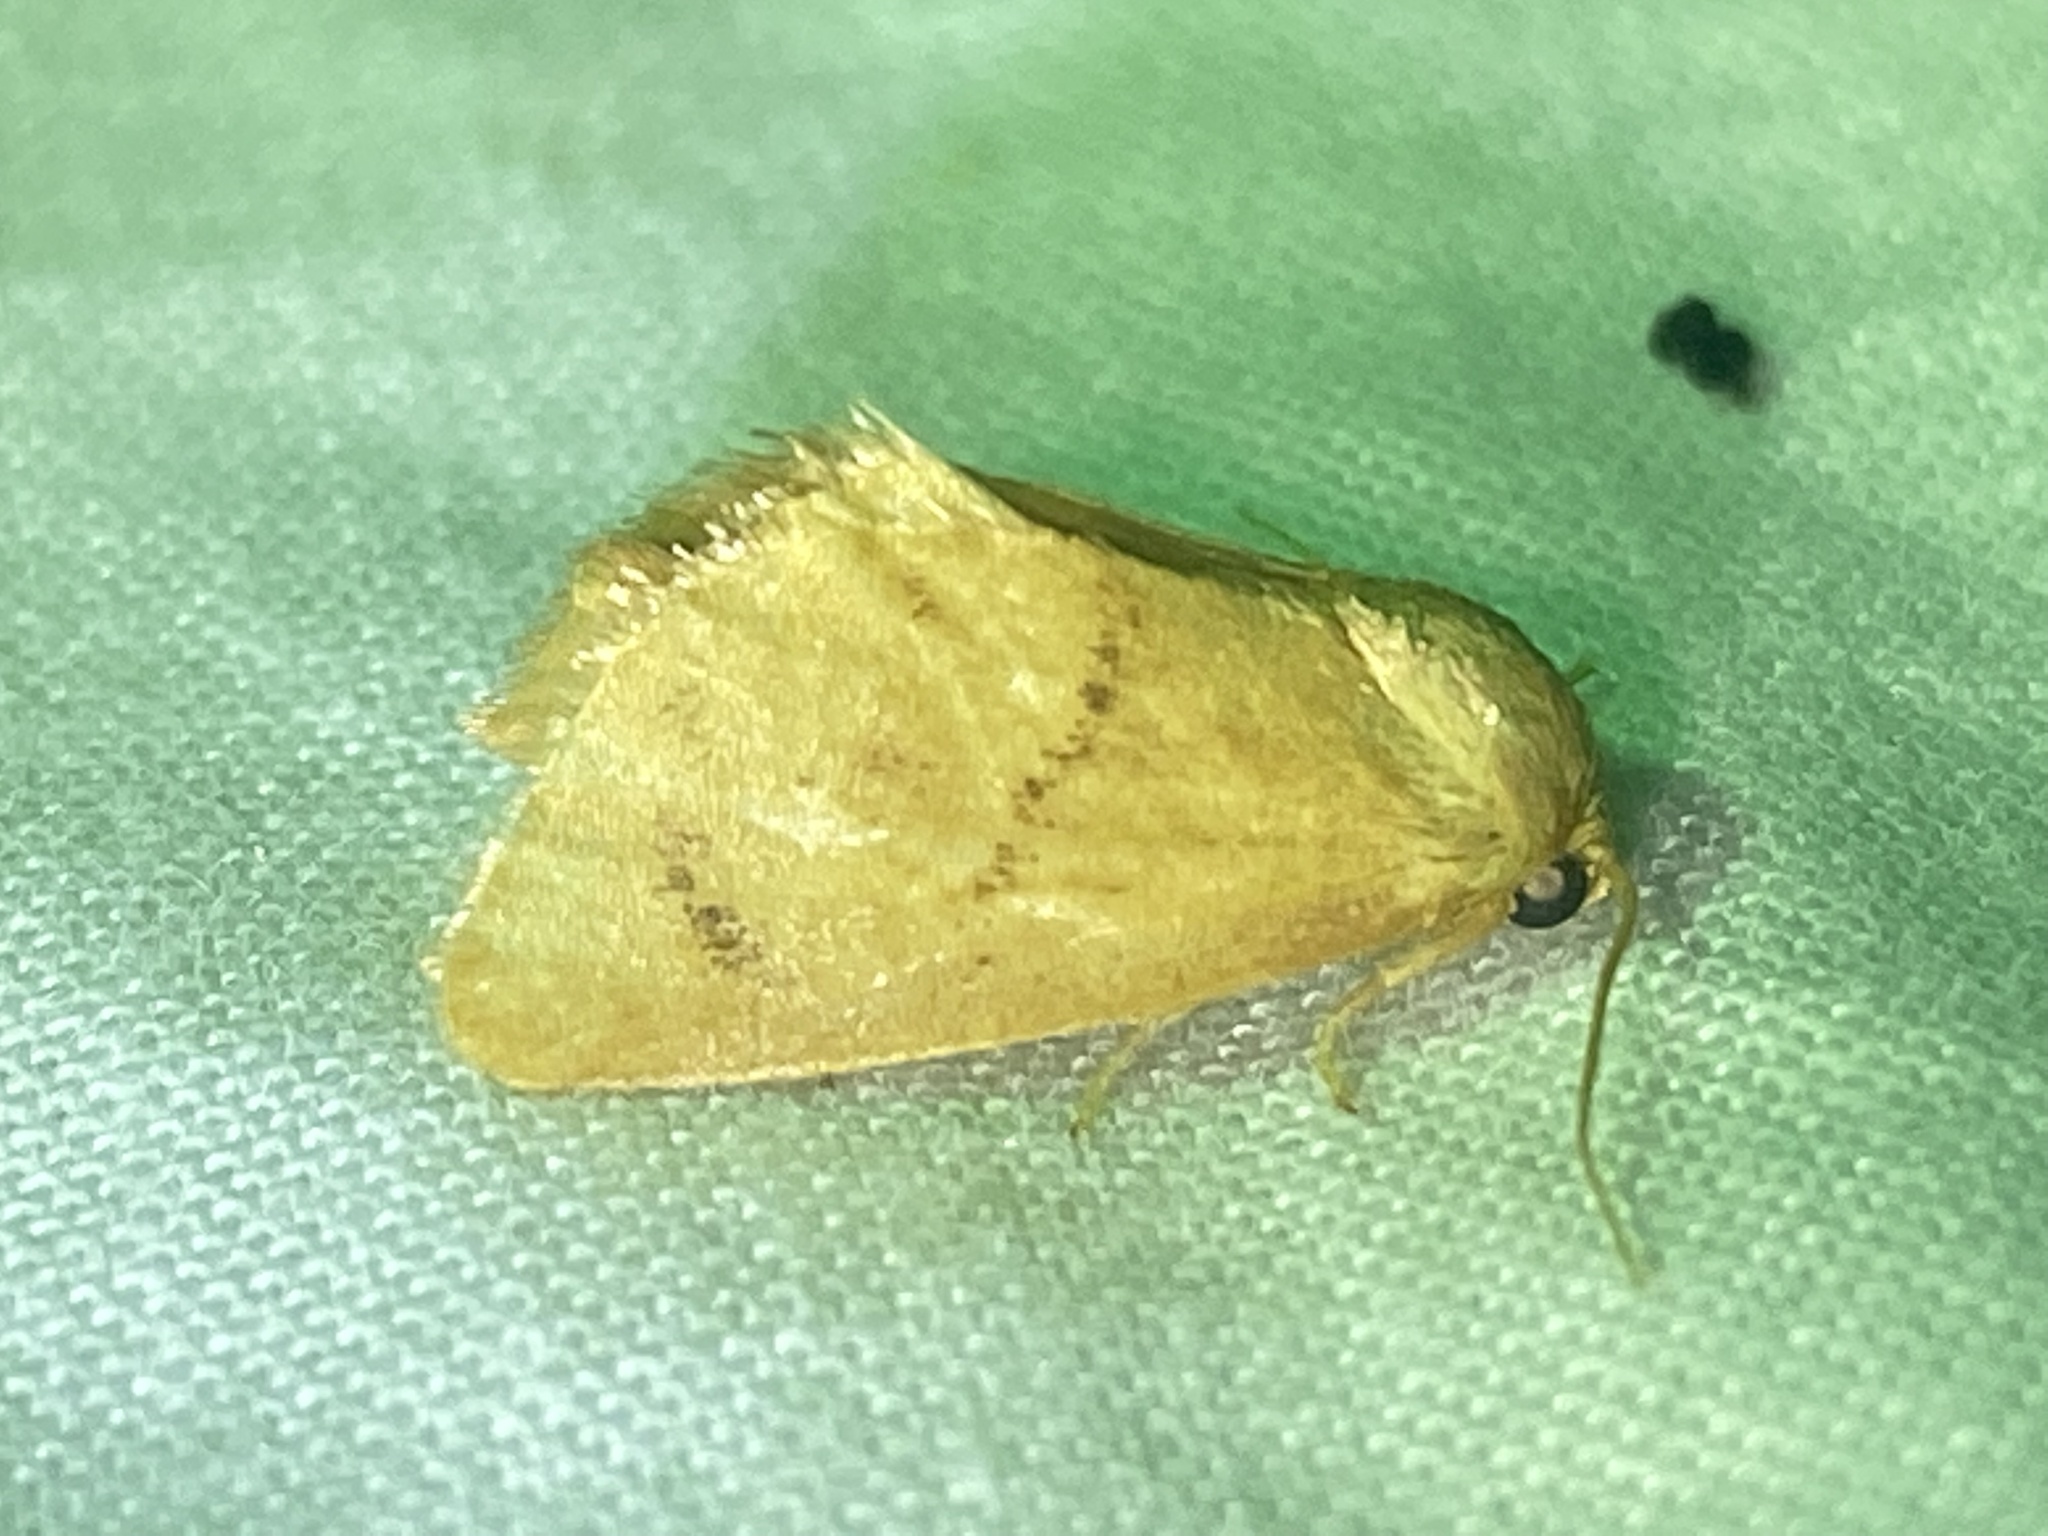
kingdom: Animalia
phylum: Arthropoda
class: Insecta
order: Lepidoptera
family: Limacodidae
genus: Tortricidia
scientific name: Tortricidia flexuosa
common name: Abbreviated button slug moth
